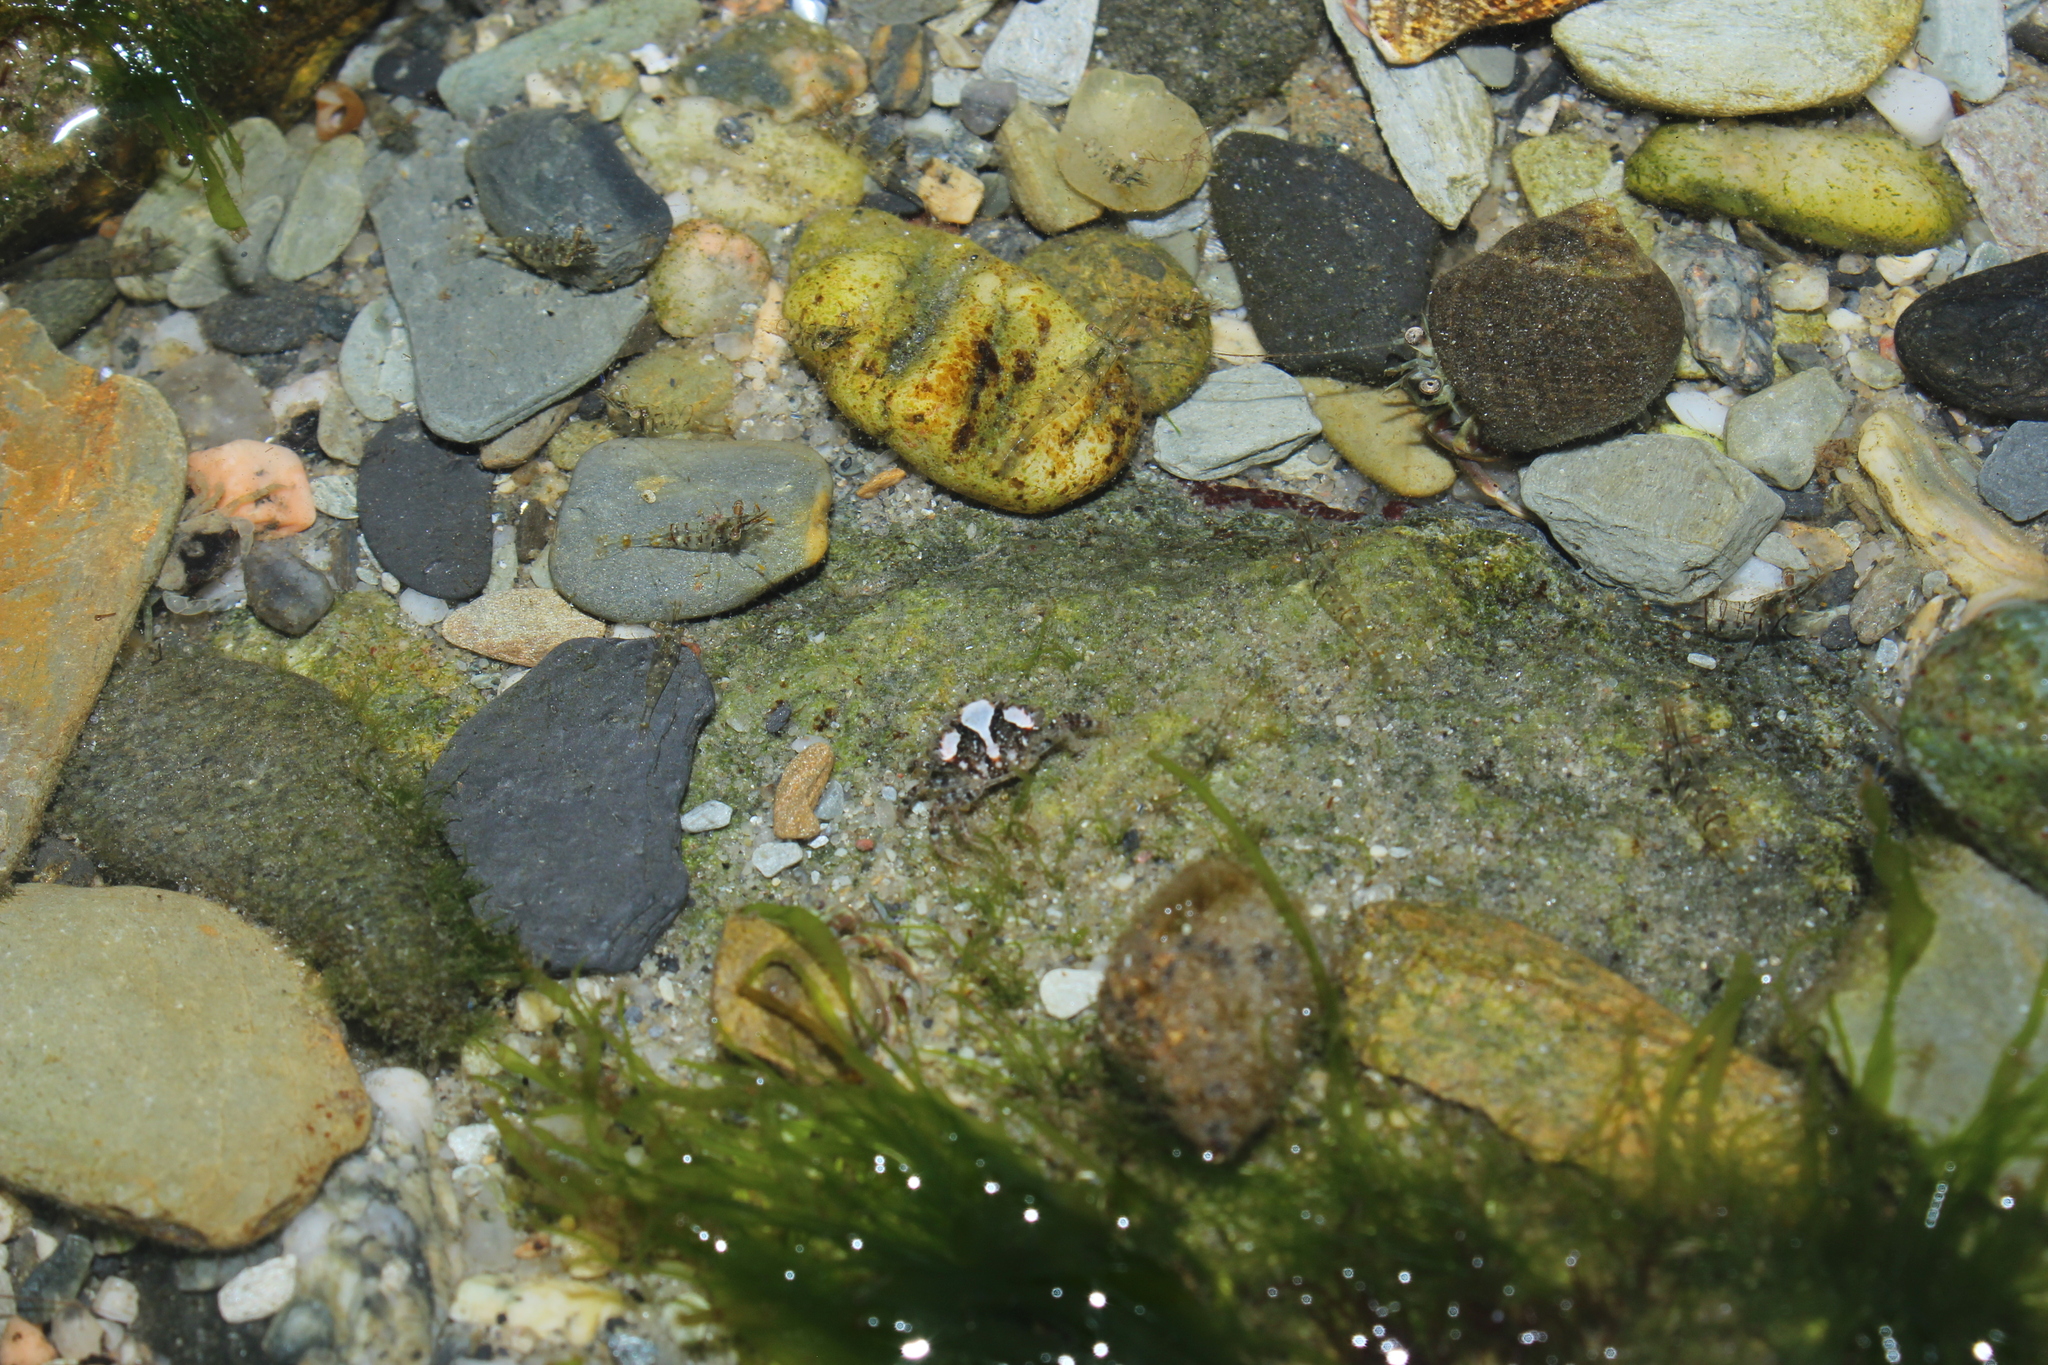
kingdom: Animalia
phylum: Arthropoda
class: Malacostraca
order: Decapoda
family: Palaemonidae
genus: Palaemon
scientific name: Palaemon elegans
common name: Grass prawm
